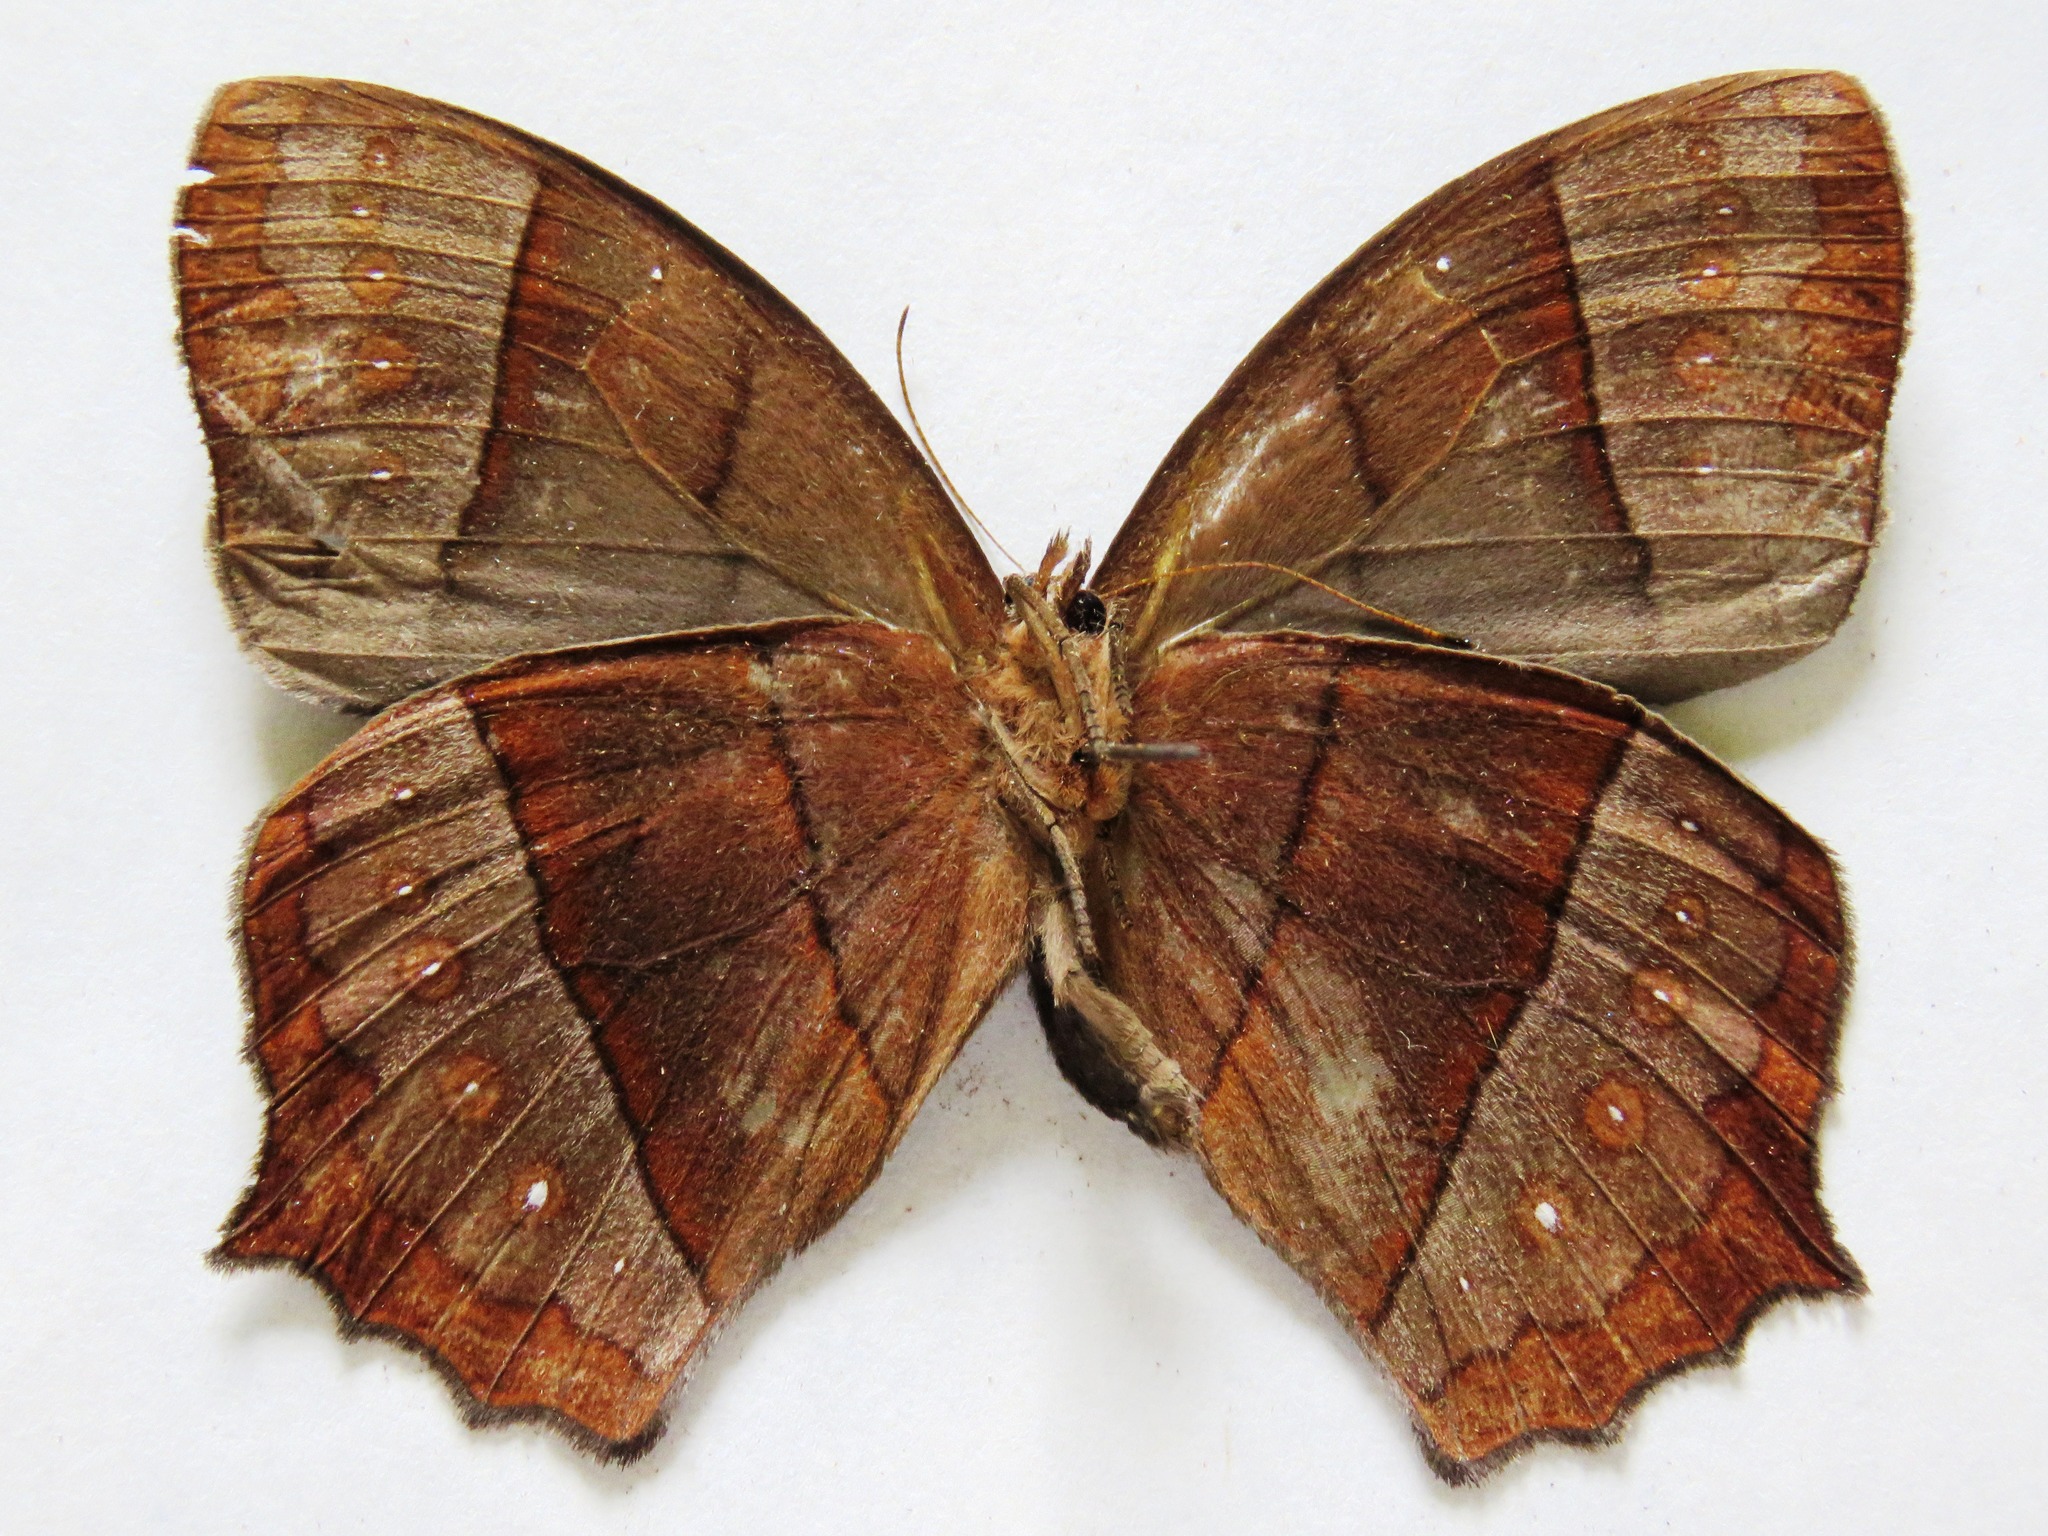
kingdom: Animalia
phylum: Arthropoda
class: Insecta
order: Lepidoptera
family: Nymphalidae
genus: Taygetis
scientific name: Taygetis virgilia
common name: Stub-tailed satyr
